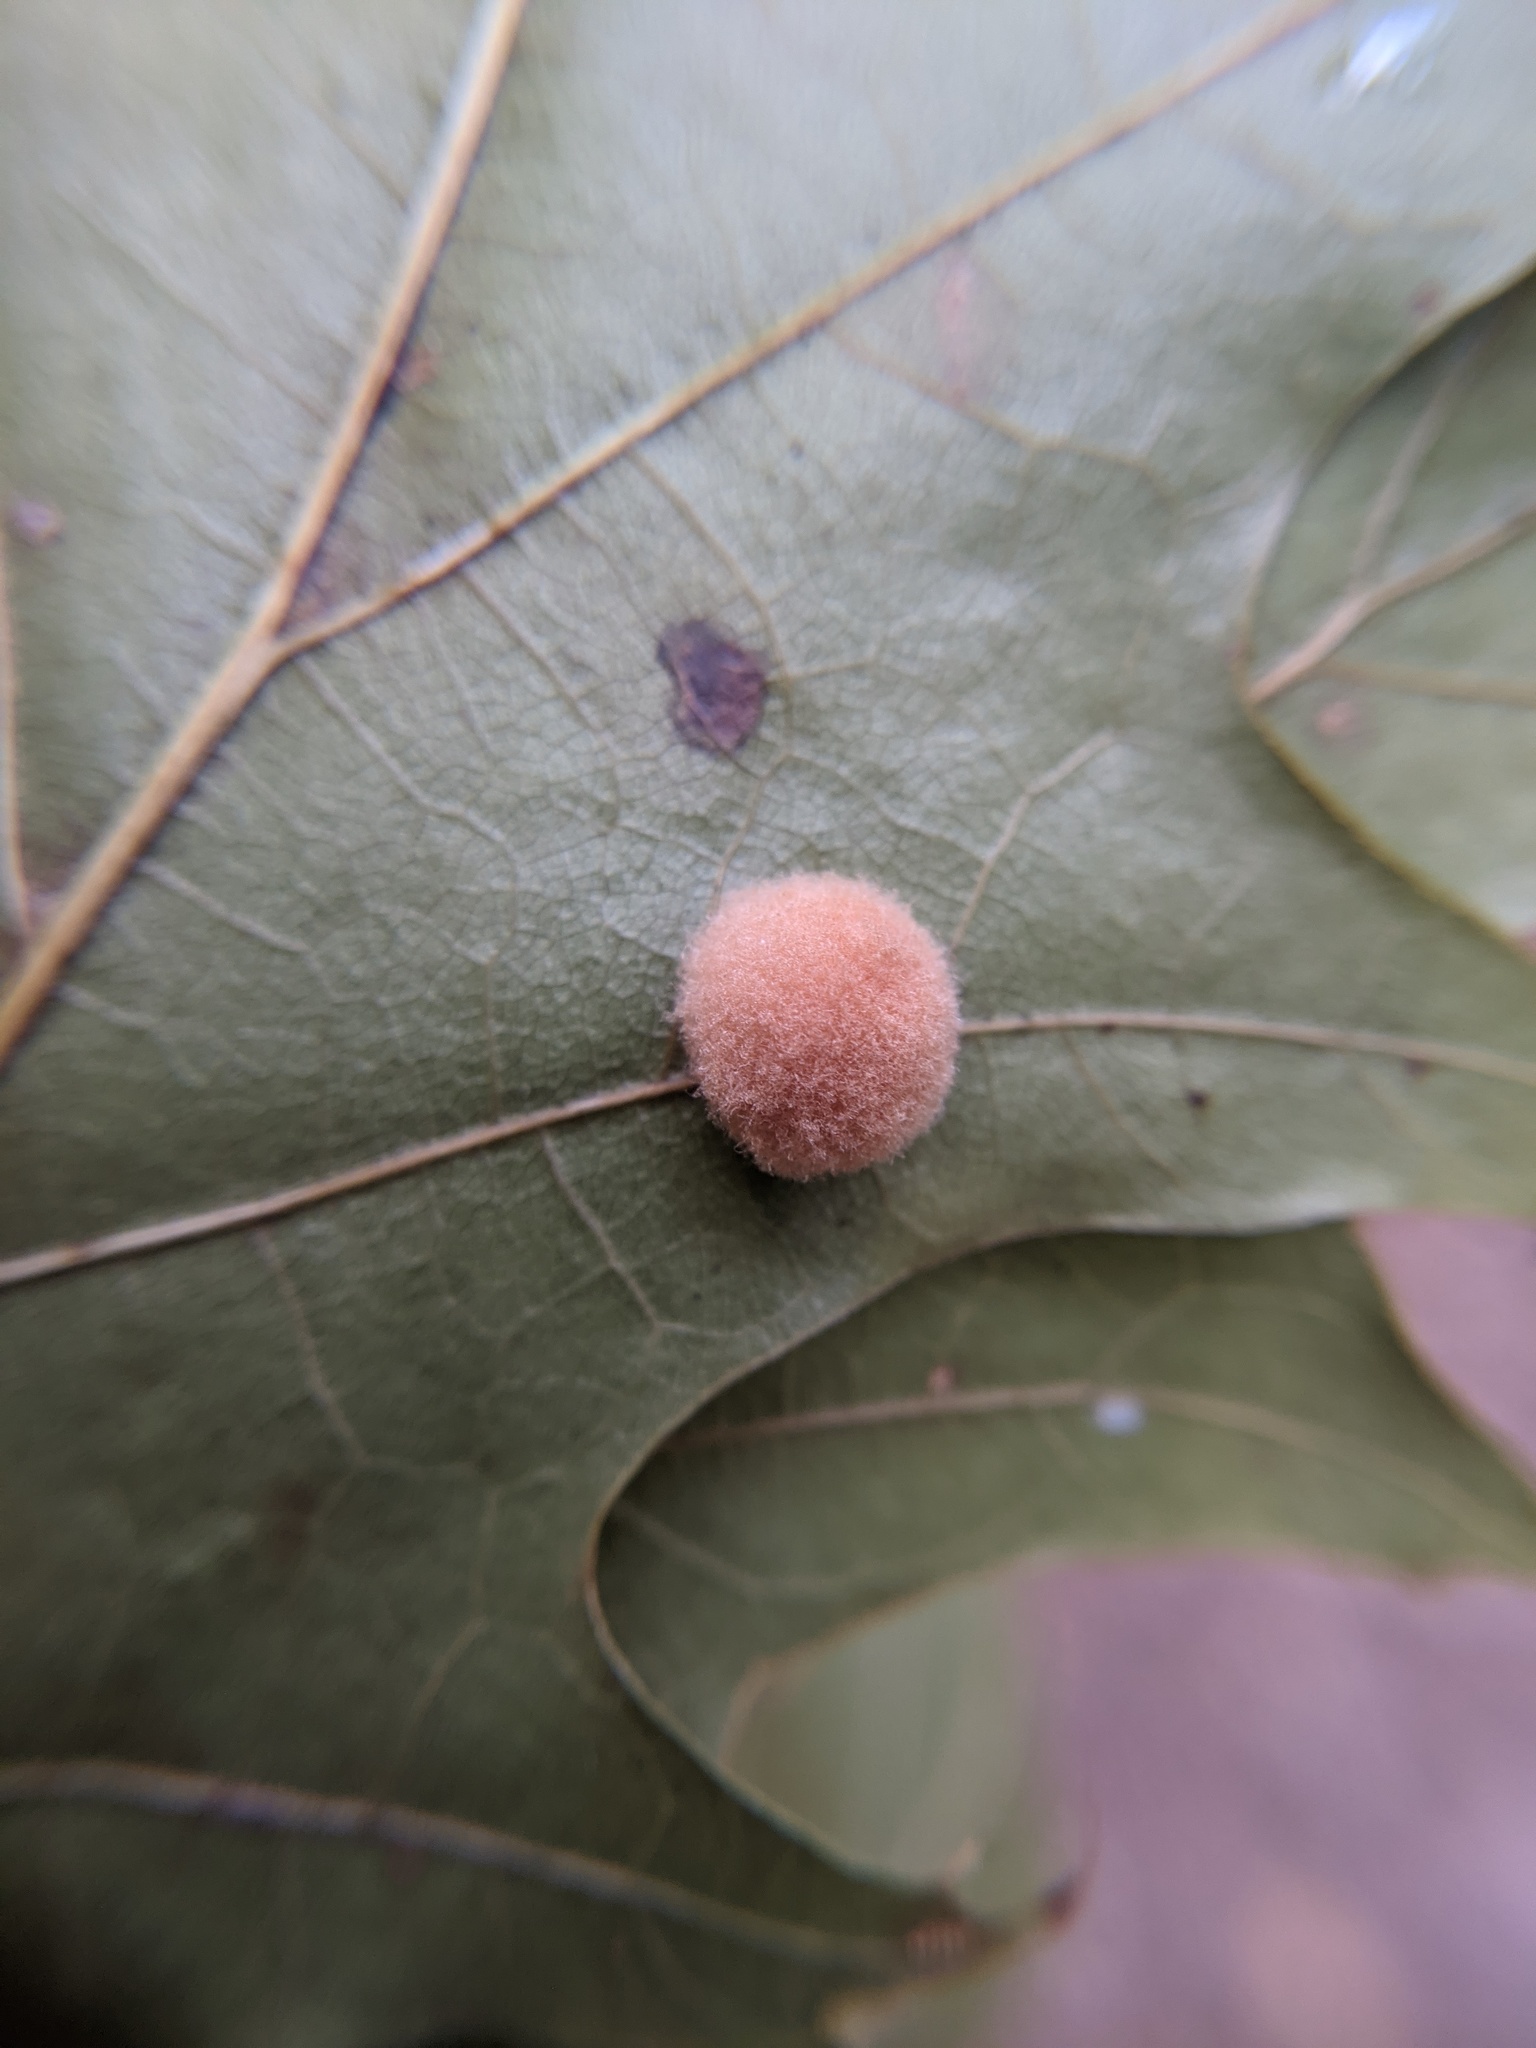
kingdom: Animalia
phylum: Arthropoda
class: Insecta
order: Hymenoptera
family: Cynipidae
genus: Callirhytis
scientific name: Callirhytis
